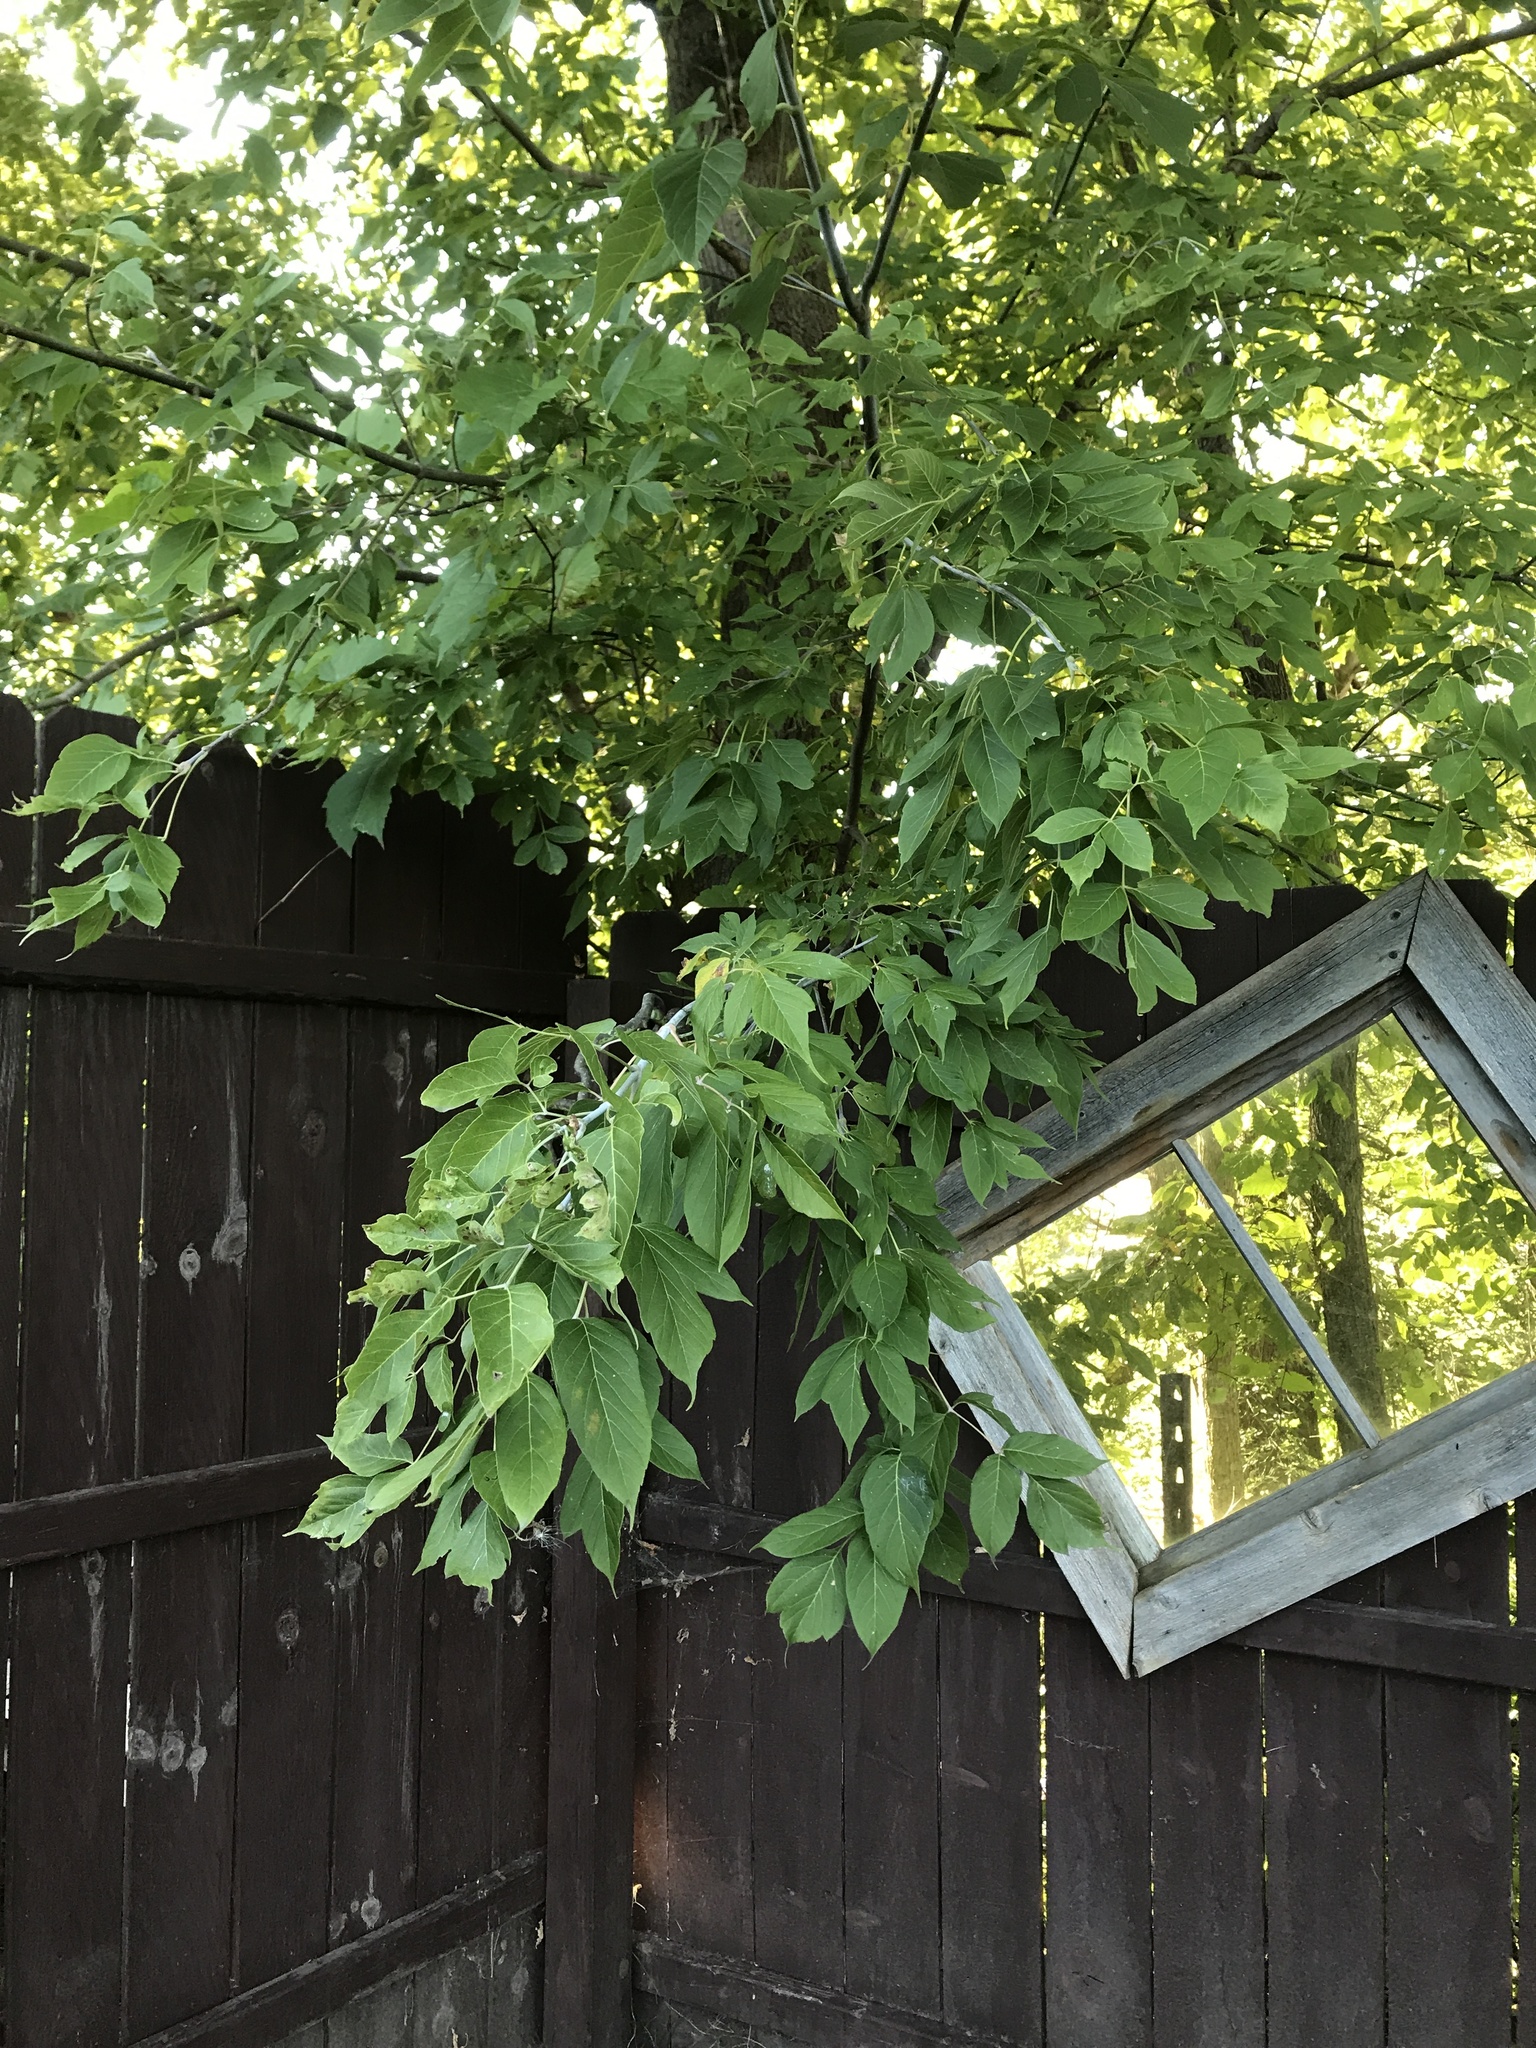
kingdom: Plantae
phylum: Tracheophyta
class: Magnoliopsida
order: Sapindales
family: Sapindaceae
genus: Acer
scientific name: Acer negundo
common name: Ashleaf maple
